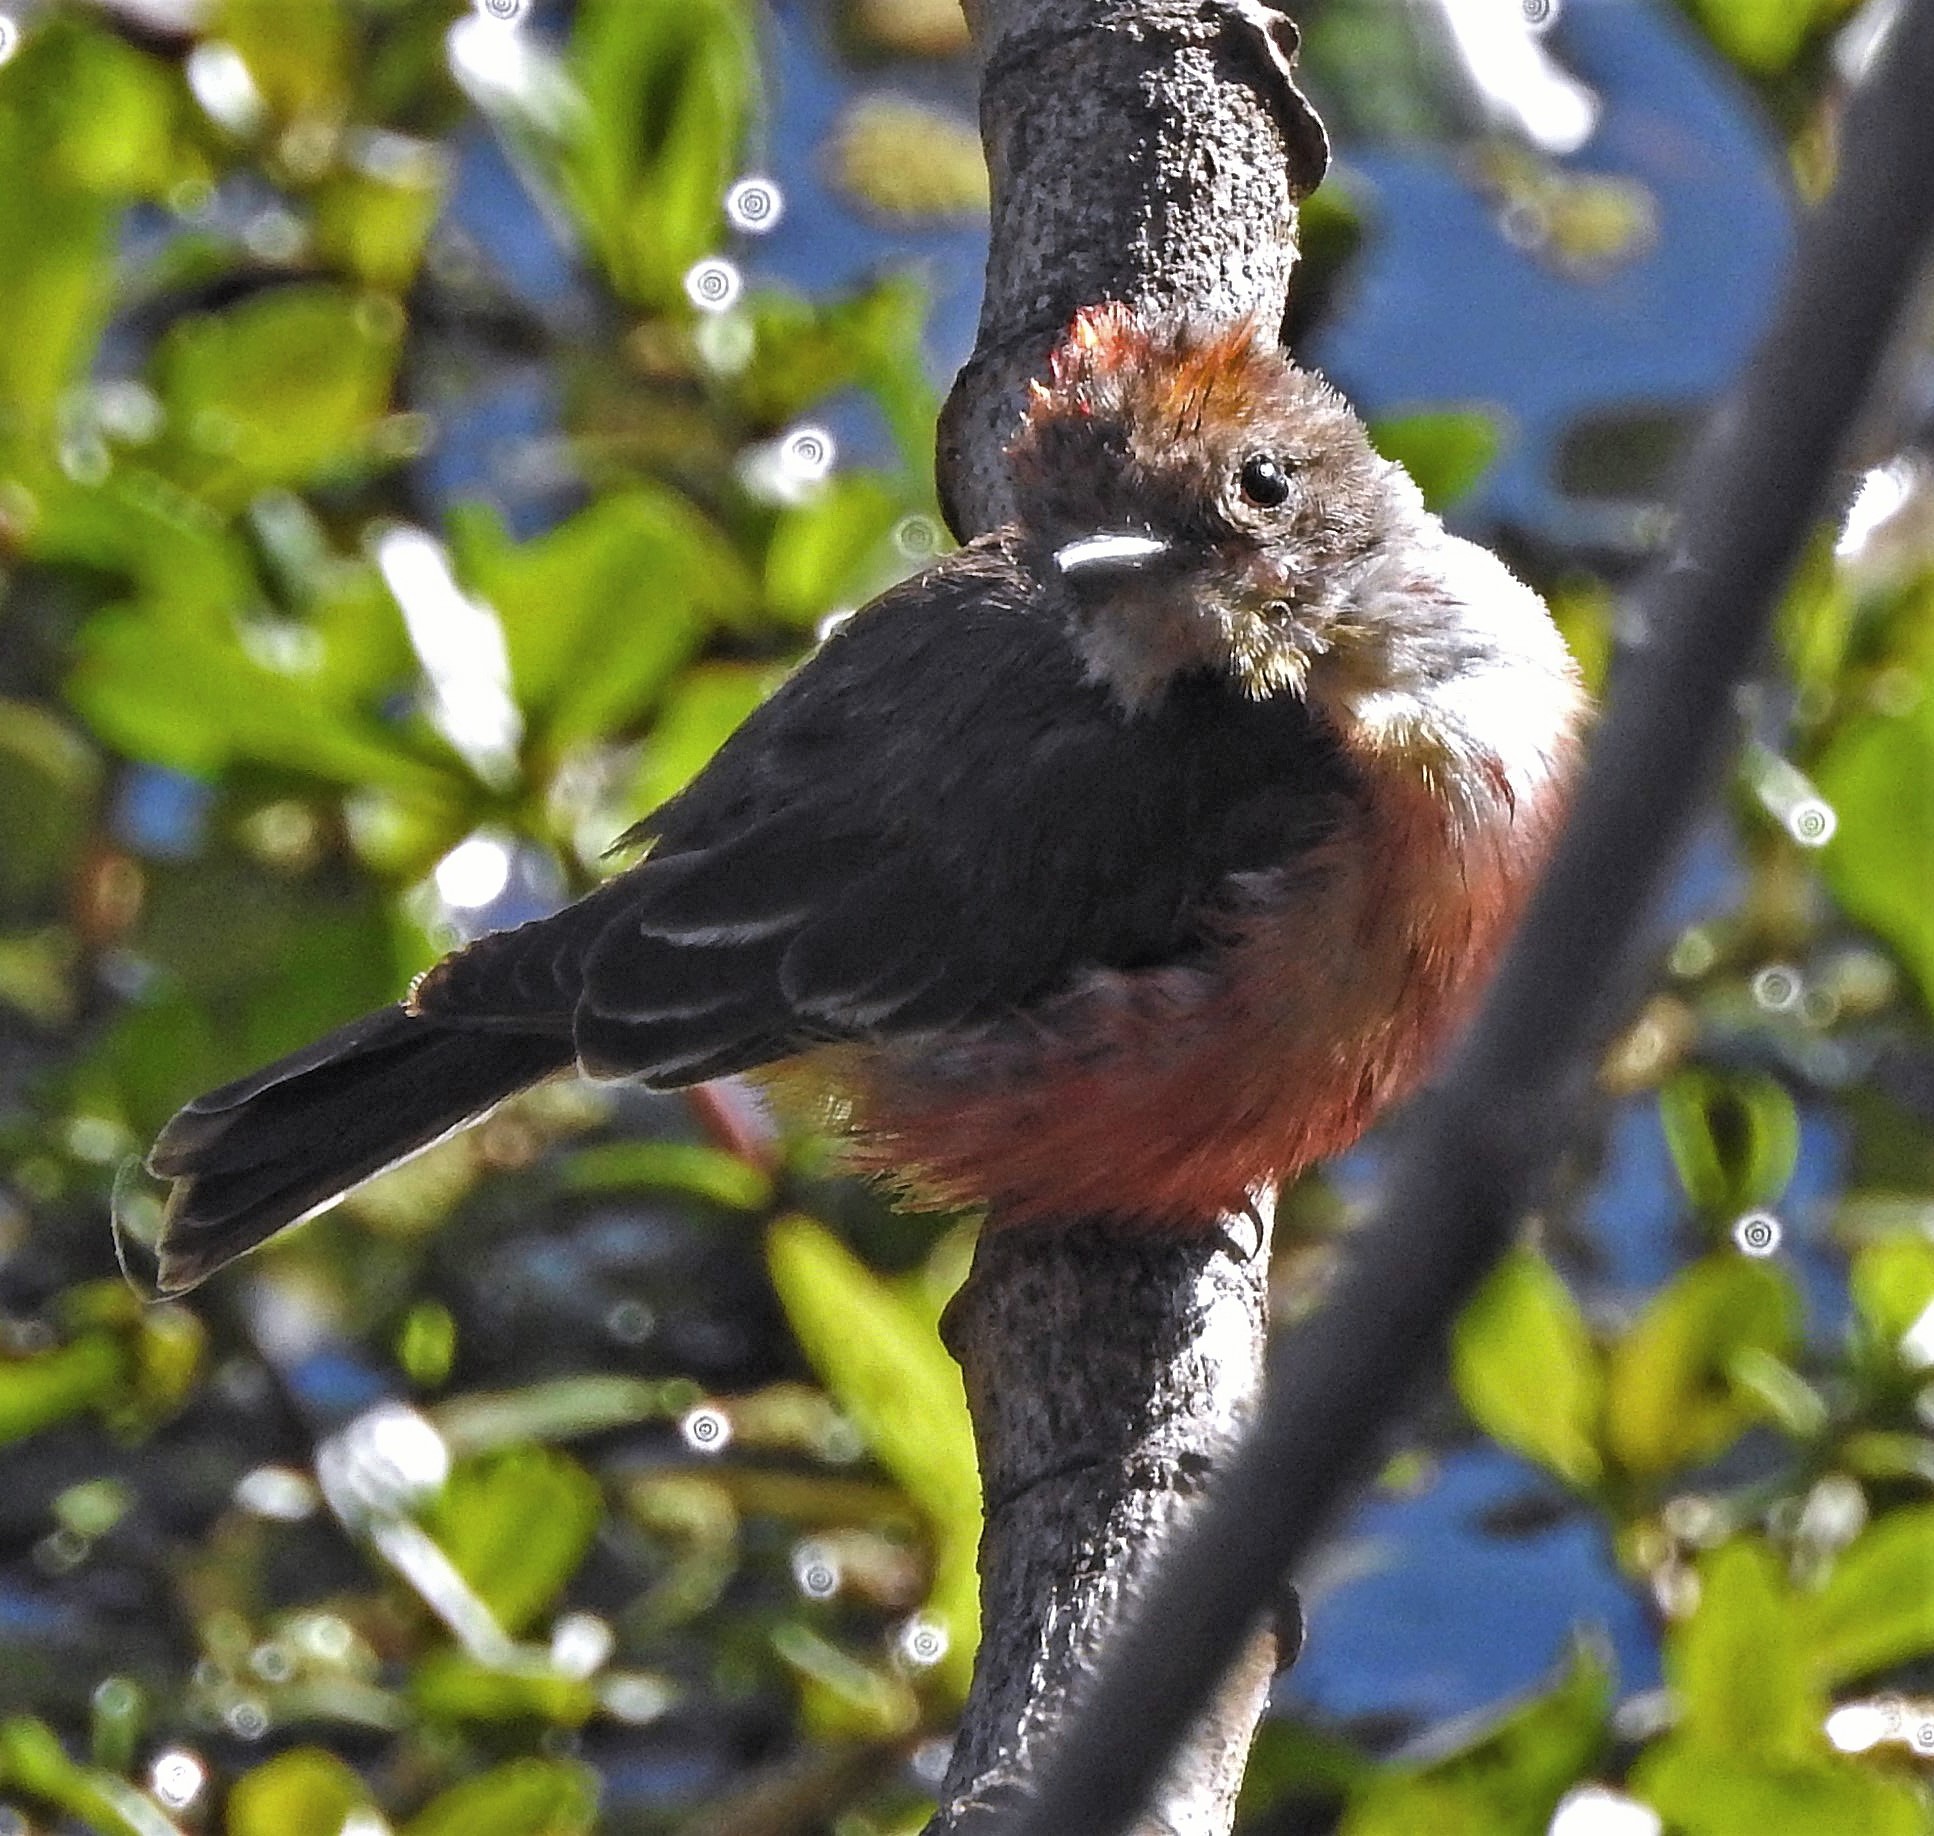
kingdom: Animalia
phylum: Chordata
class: Aves
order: Passeriformes
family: Tyrannidae
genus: Pyrocephalus
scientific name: Pyrocephalus rubinus
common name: Vermilion flycatcher
